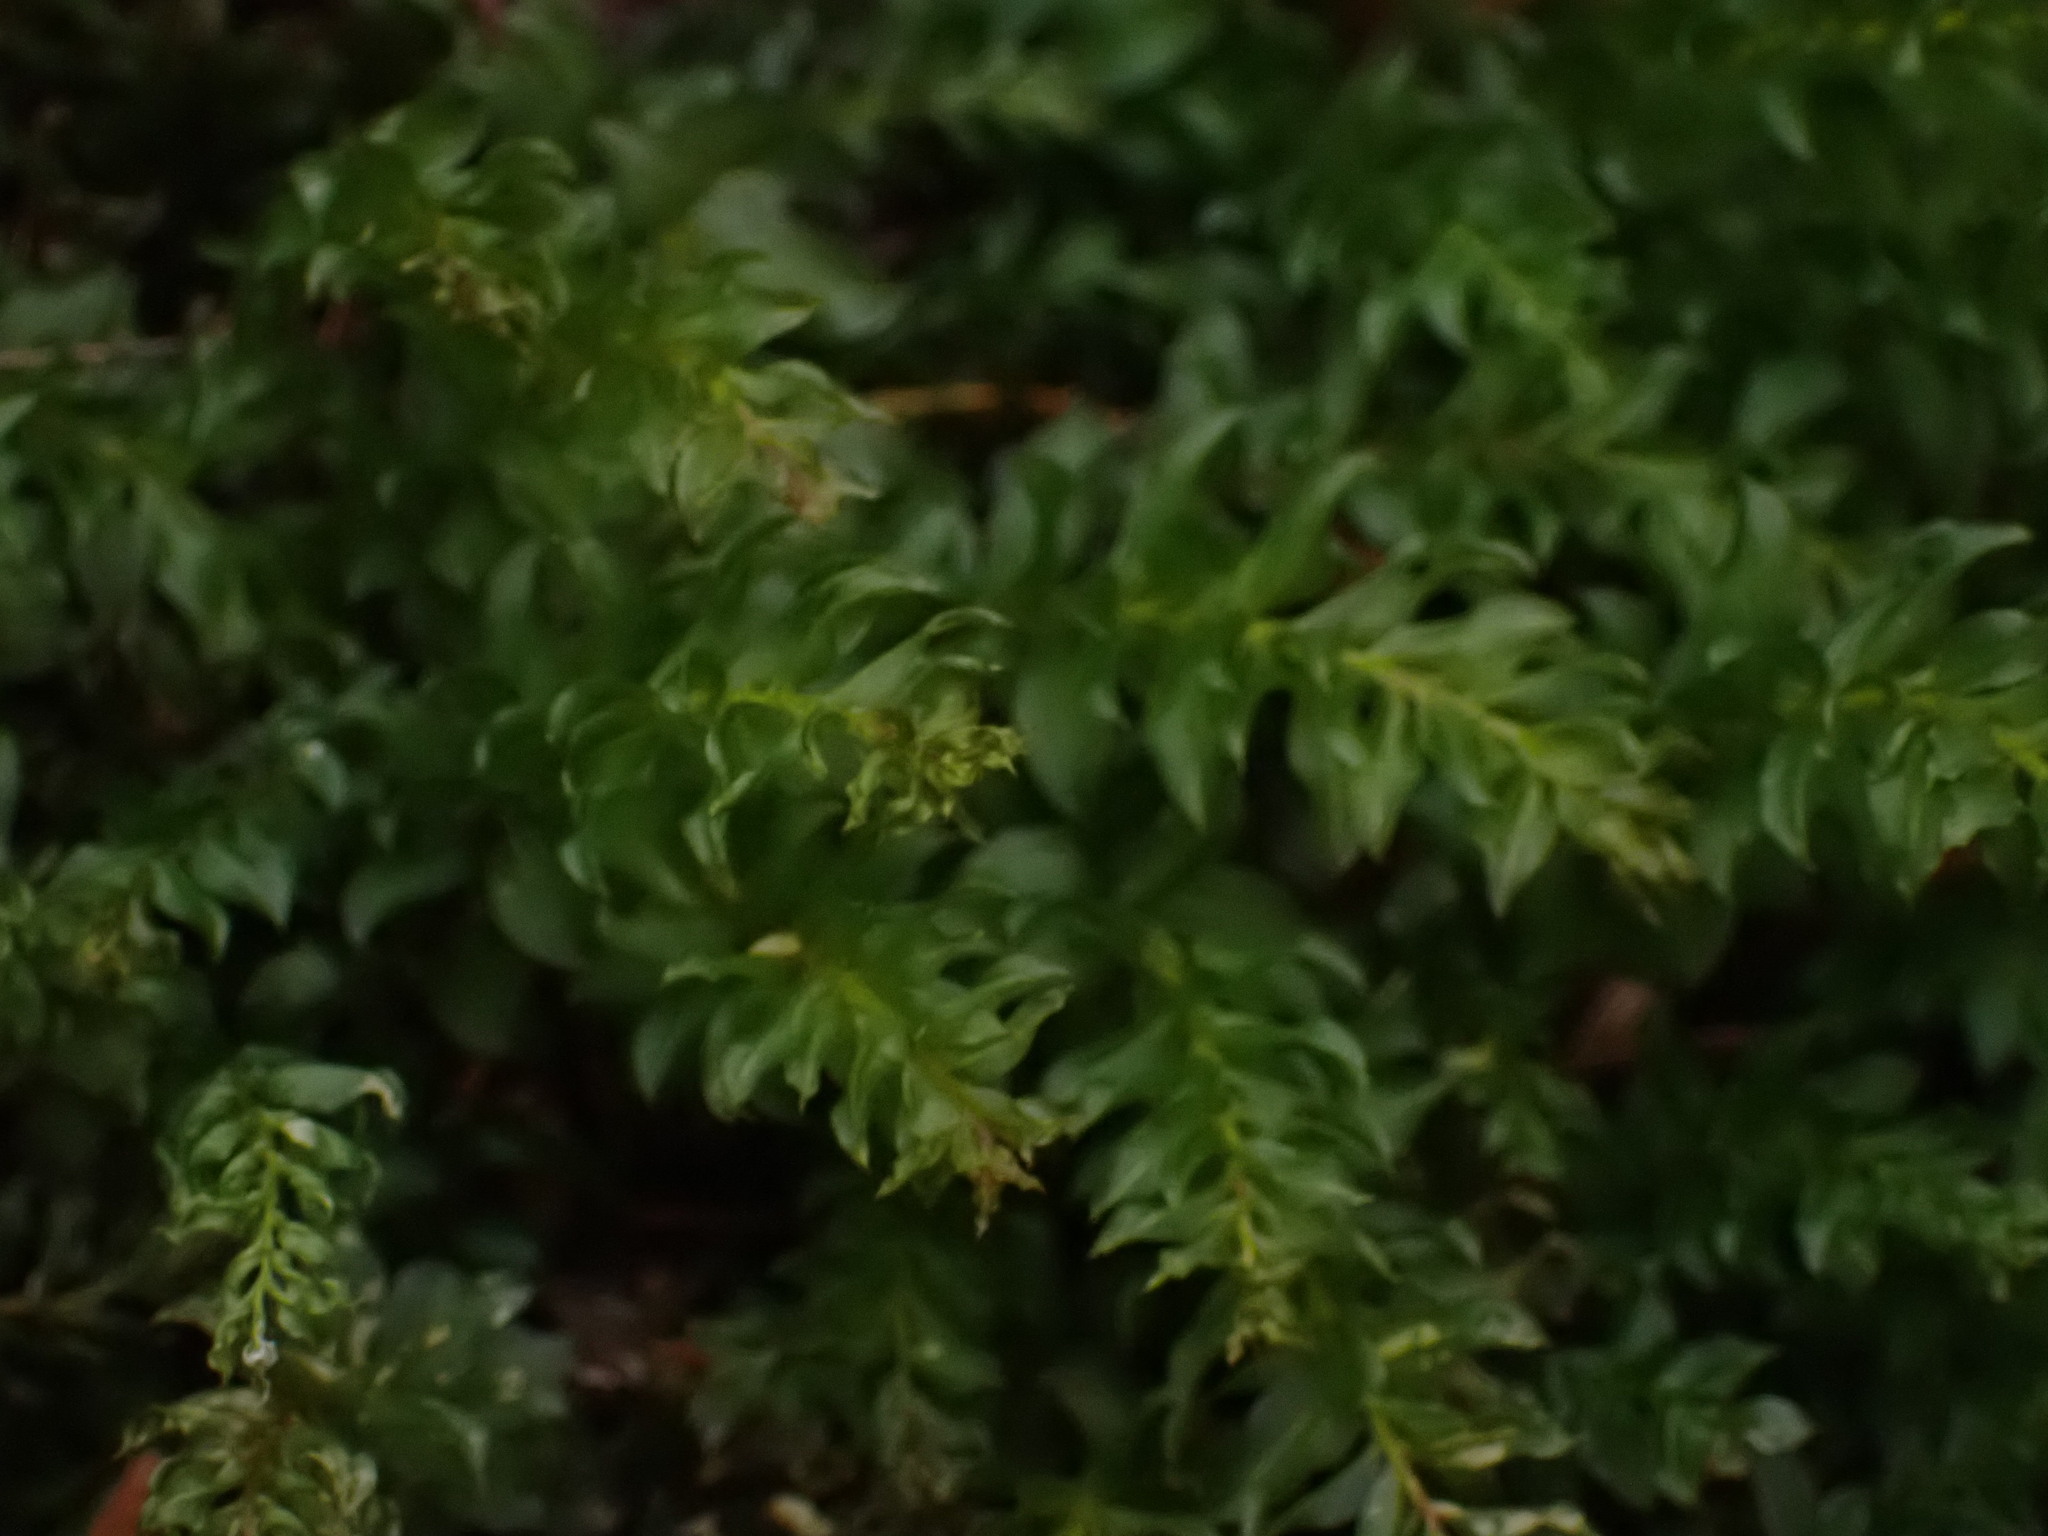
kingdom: Plantae
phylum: Bryophyta
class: Bryopsida
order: Bryales
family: Mniaceae
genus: Plagiomnium
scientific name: Plagiomnium venustum
